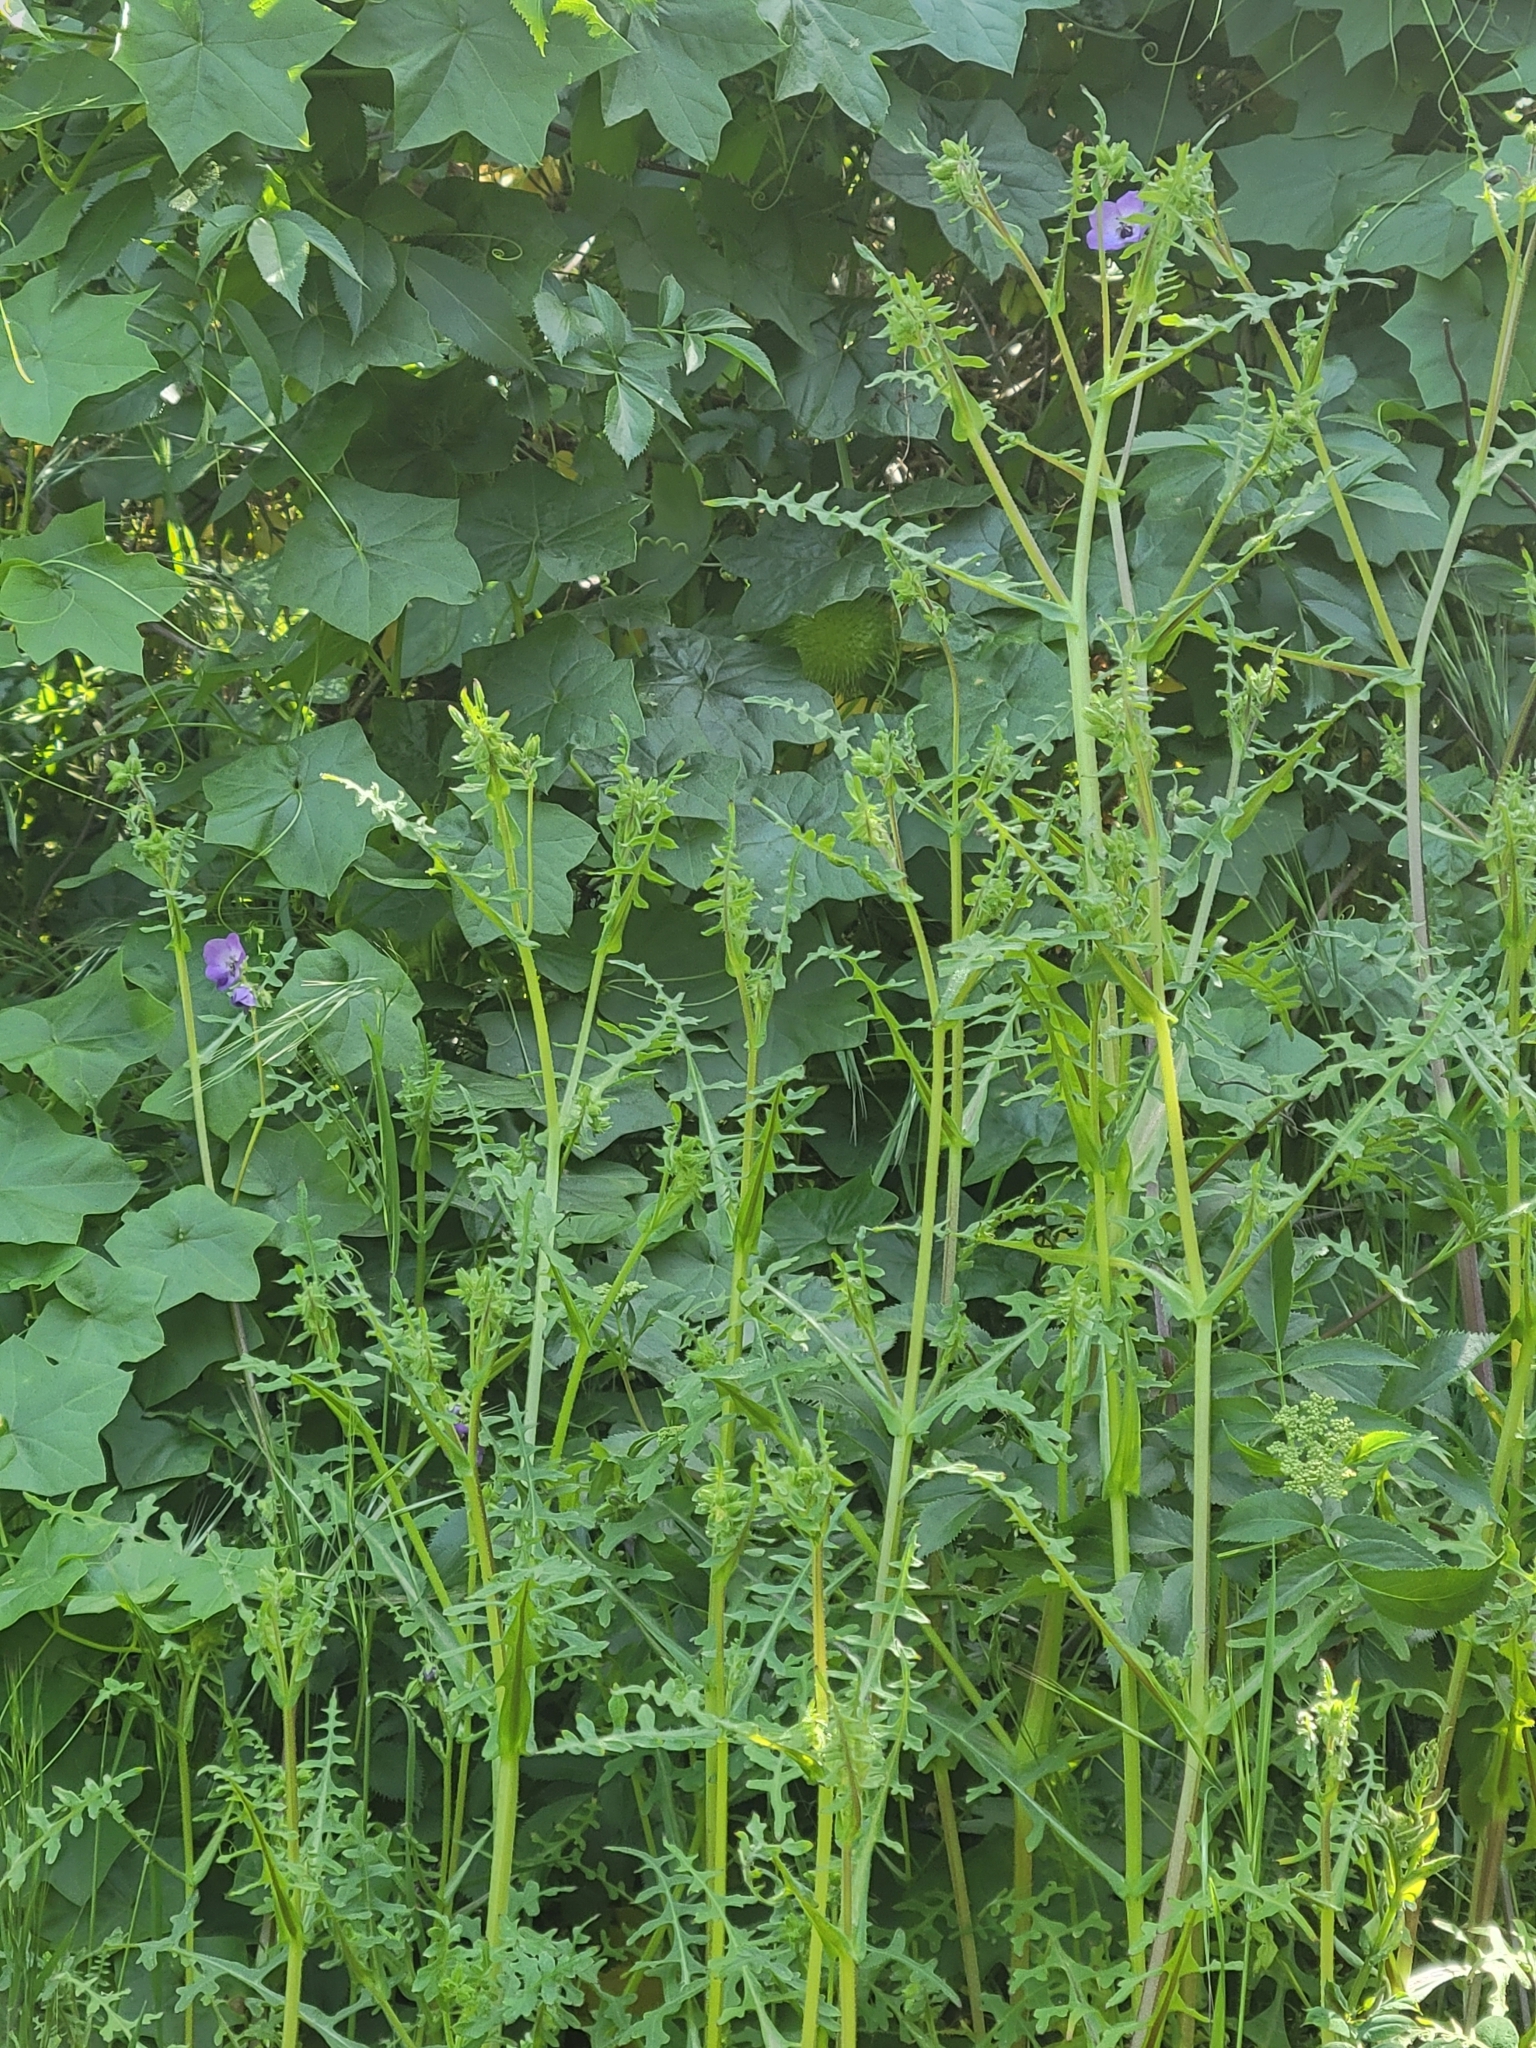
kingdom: Plantae
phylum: Tracheophyta
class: Magnoliopsida
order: Boraginales
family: Hydrophyllaceae
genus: Pholistoma
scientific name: Pholistoma auritum
